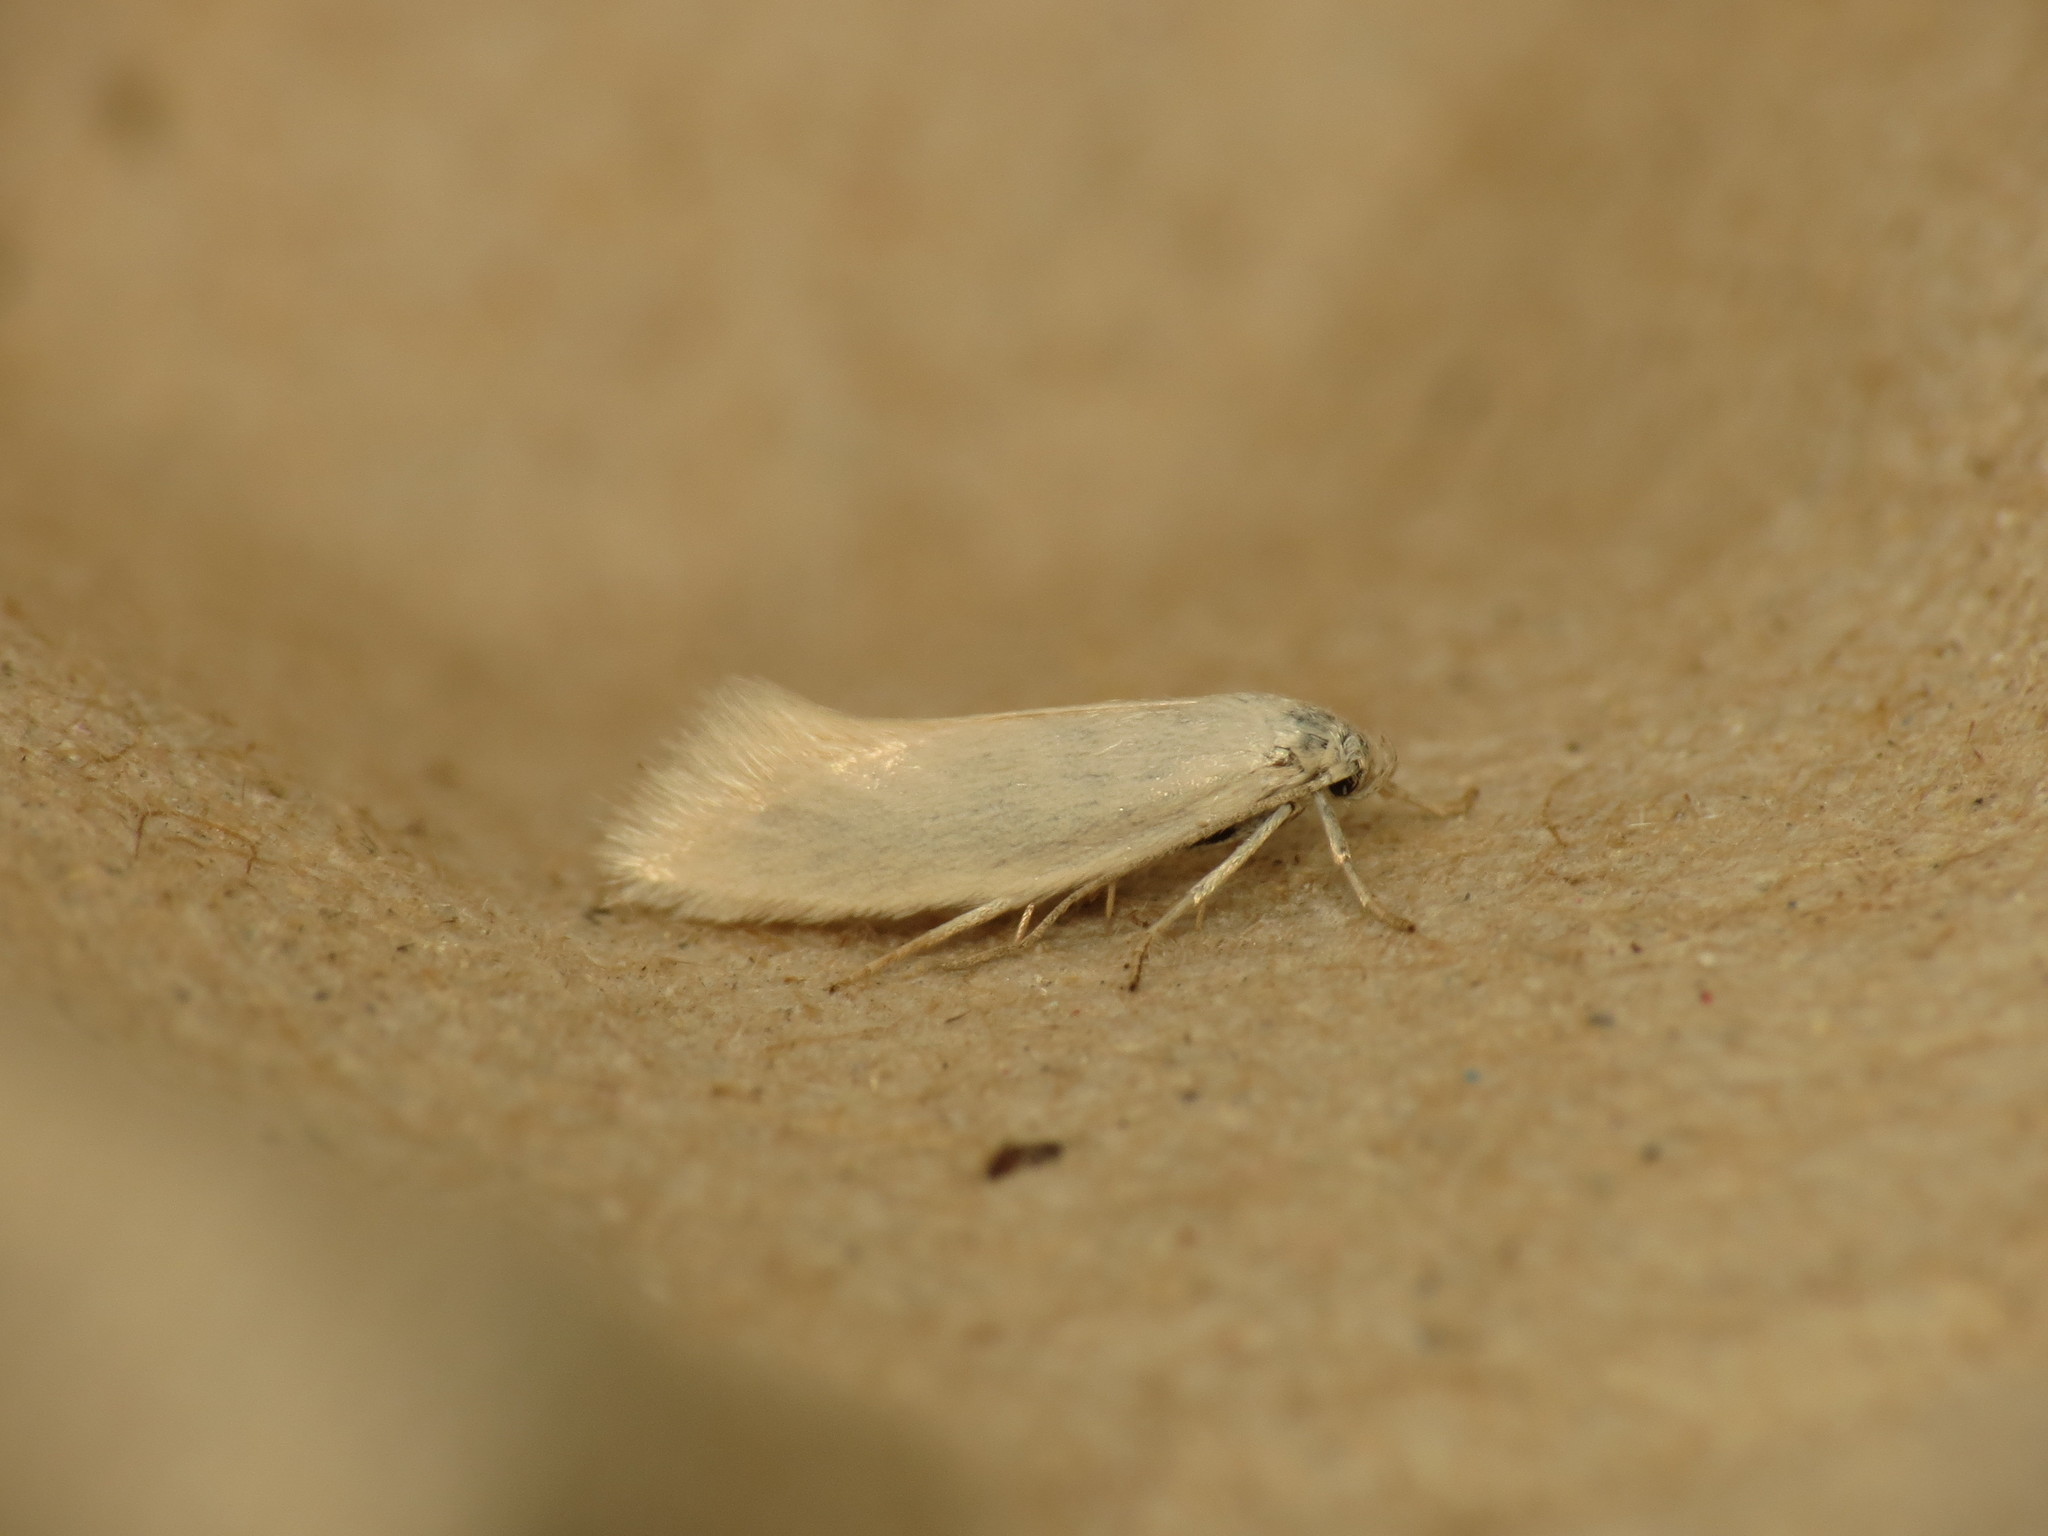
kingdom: Animalia
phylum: Arthropoda
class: Insecta
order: Lepidoptera
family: Elachistidae
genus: Elachista
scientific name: Elachista subalbidella
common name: Buff dwarf
